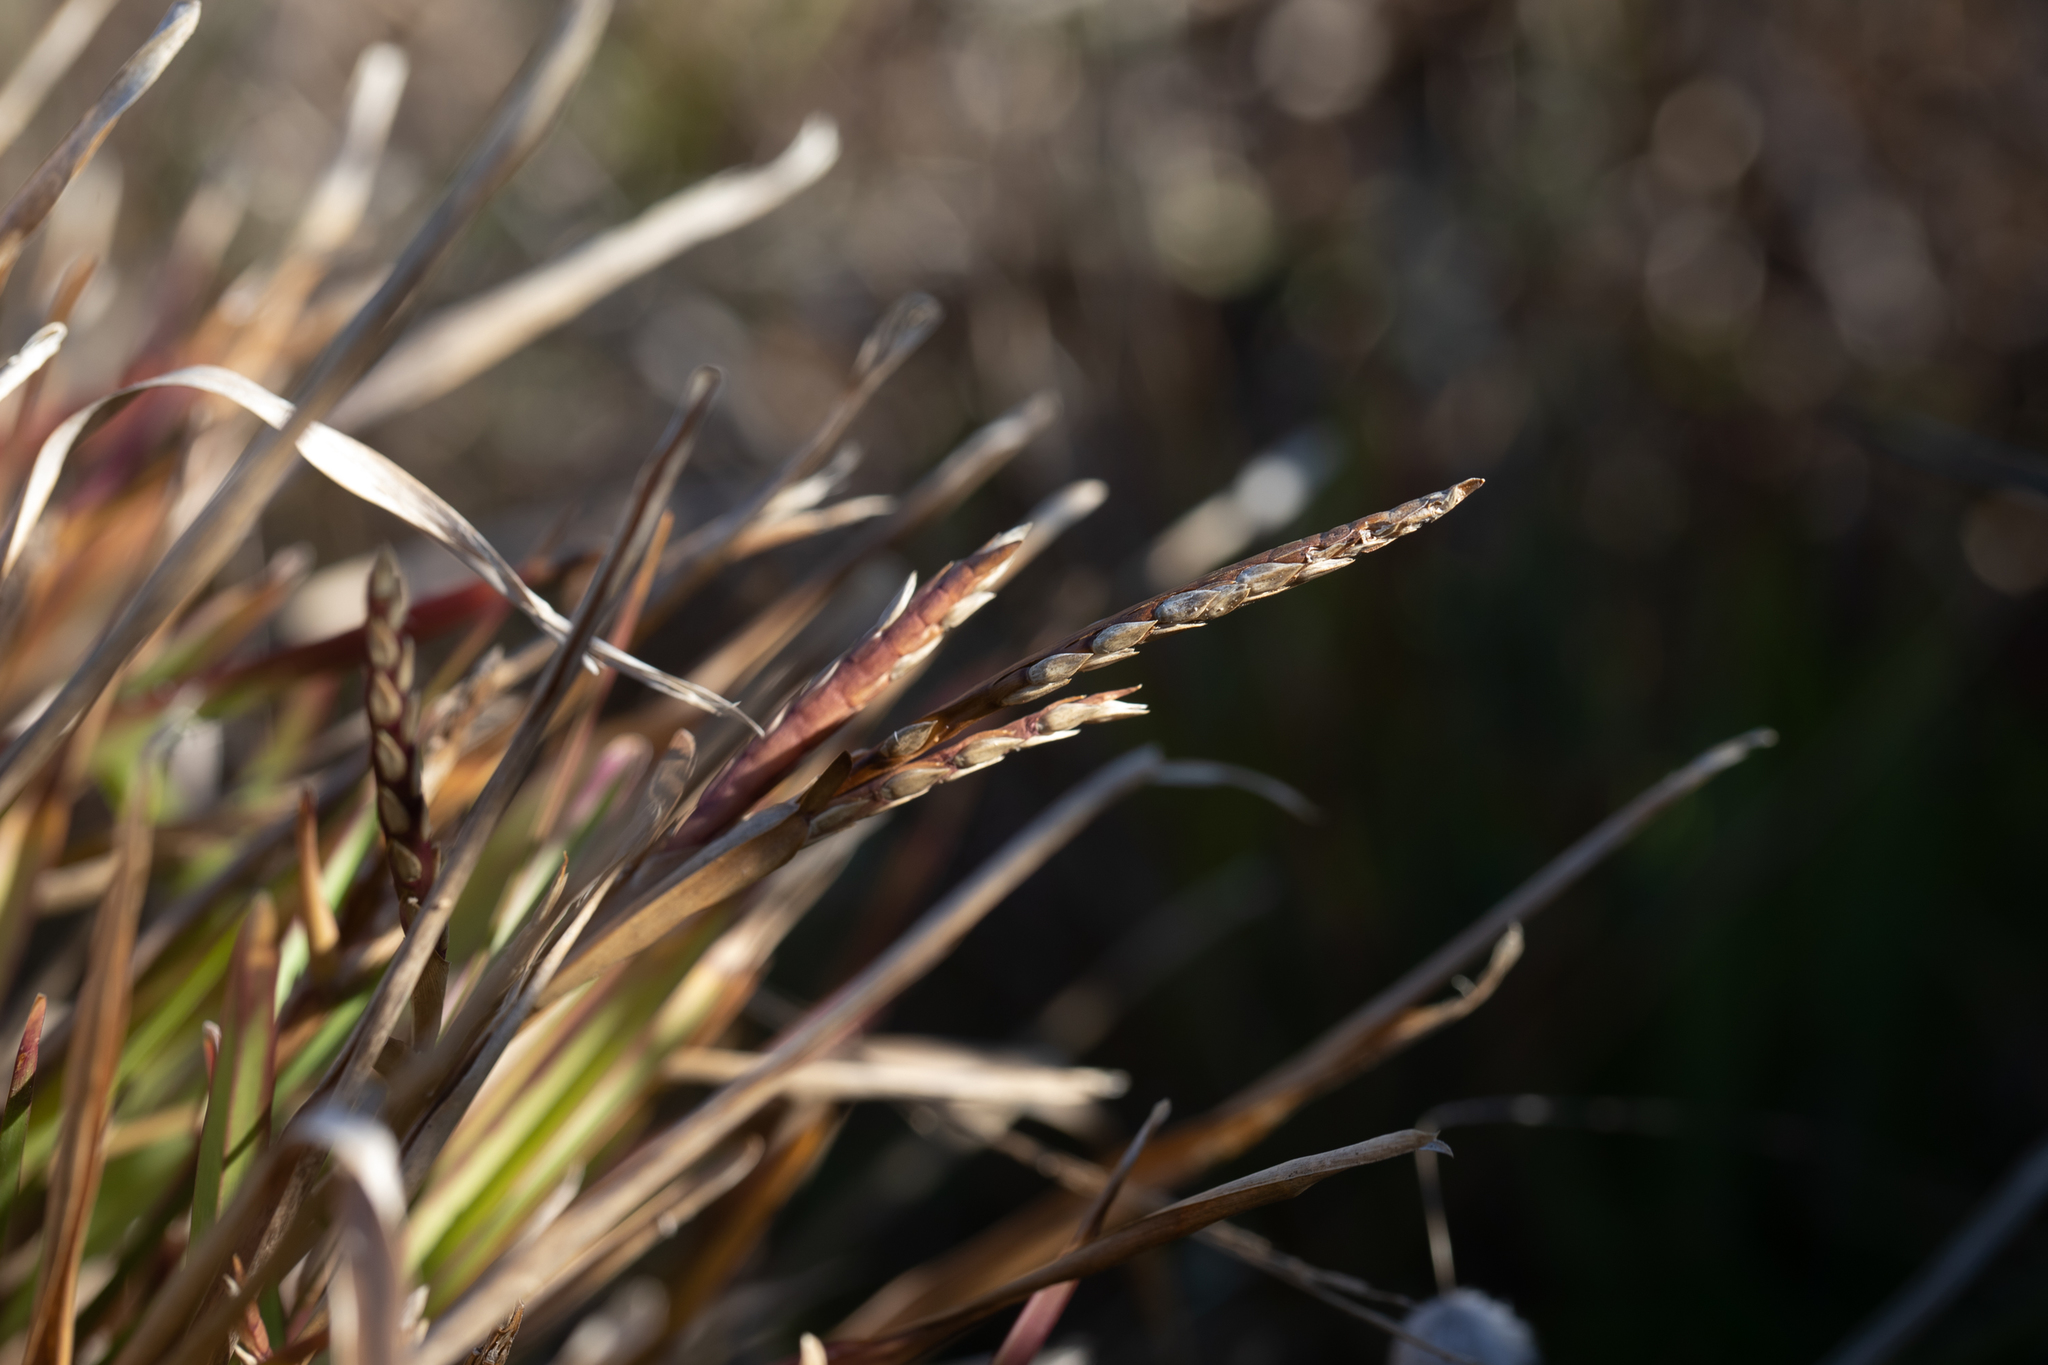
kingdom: Plantae
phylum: Tracheophyta
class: Liliopsida
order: Poales
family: Poaceae
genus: Stenotaphrum
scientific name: Stenotaphrum secundatum
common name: St. augustine grass
